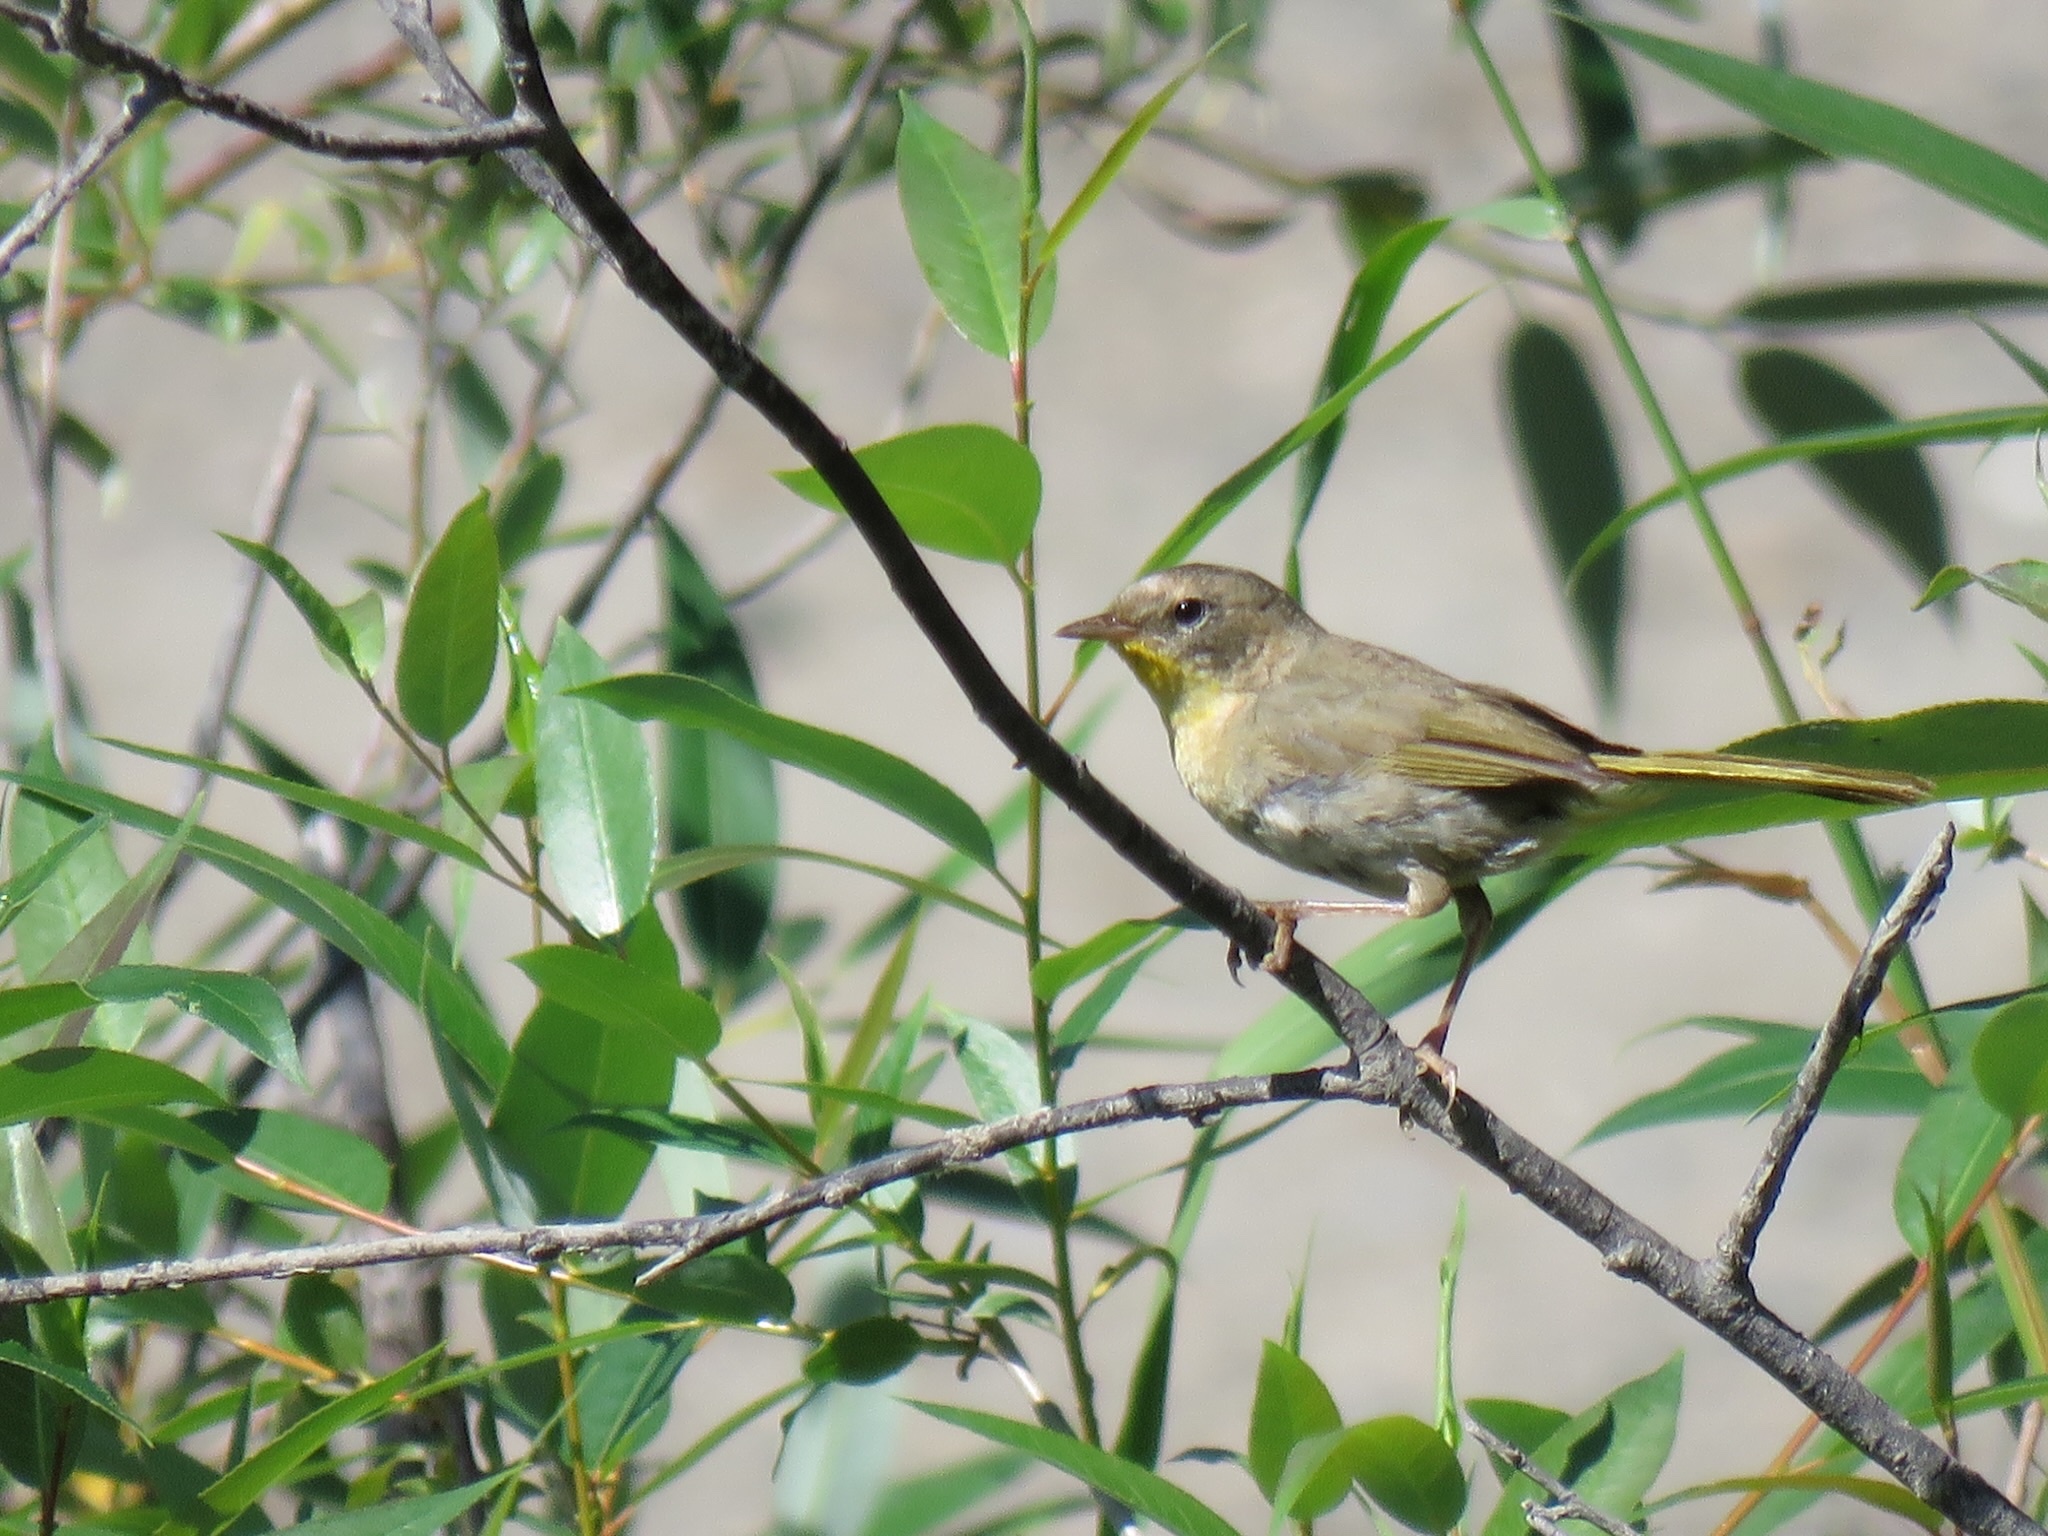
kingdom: Animalia
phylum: Chordata
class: Aves
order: Passeriformes
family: Parulidae
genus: Geothlypis
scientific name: Geothlypis trichas
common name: Common yellowthroat
